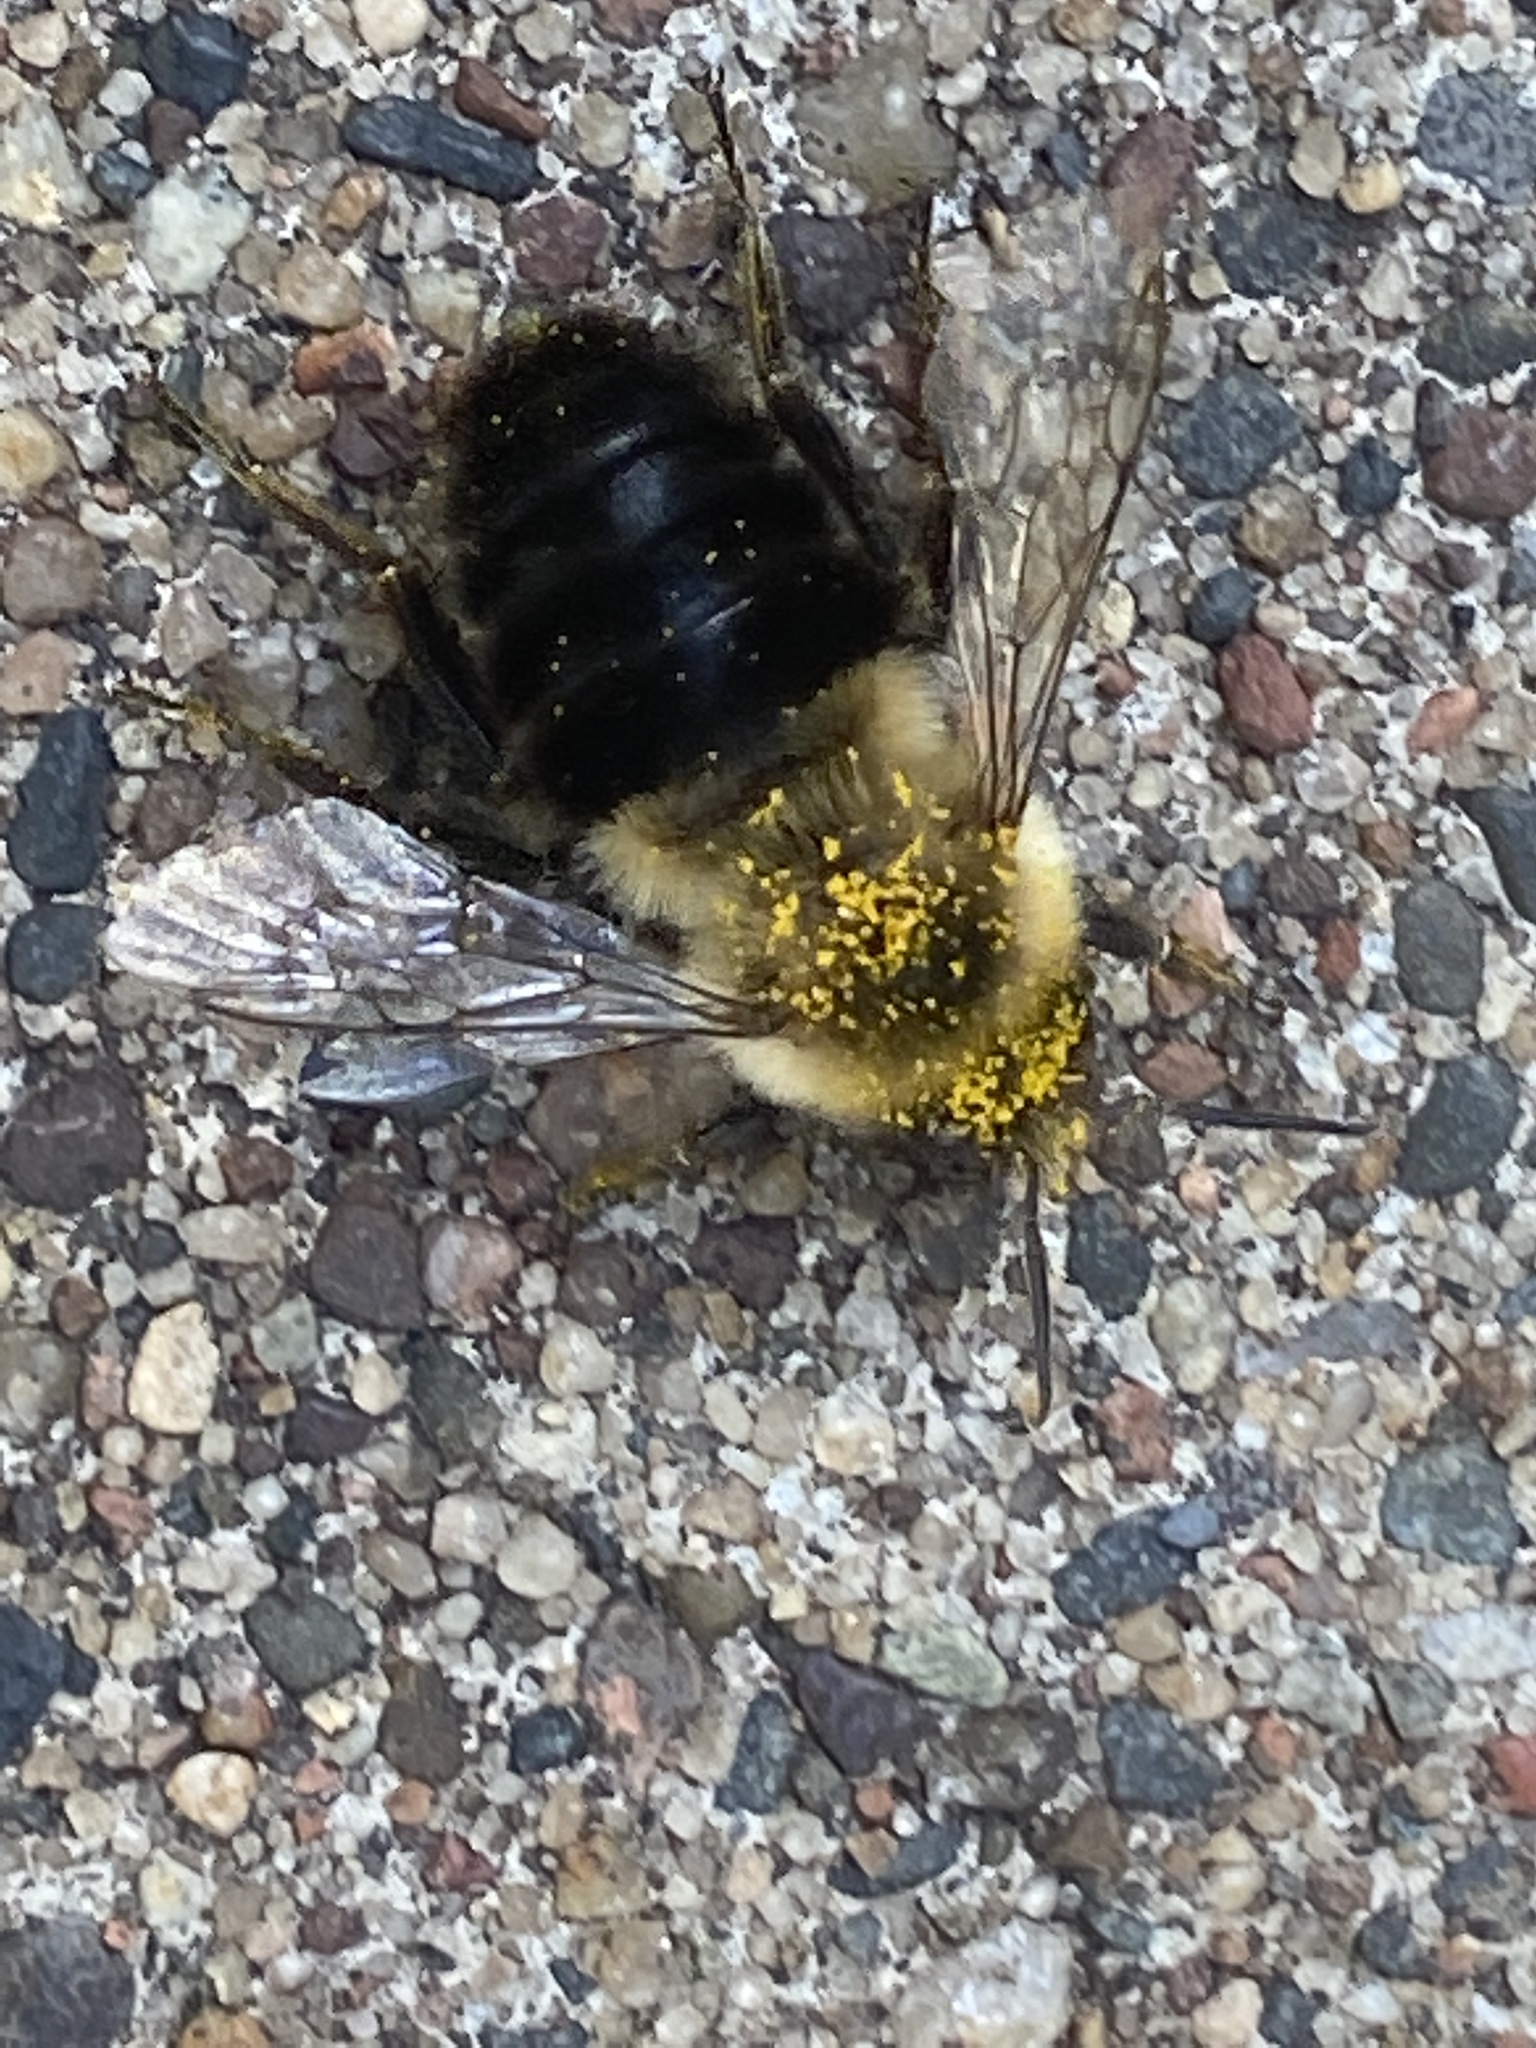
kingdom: Animalia
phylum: Arthropoda
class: Insecta
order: Hymenoptera
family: Apidae
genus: Bombus
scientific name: Bombus impatiens
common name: Common eastern bumble bee
